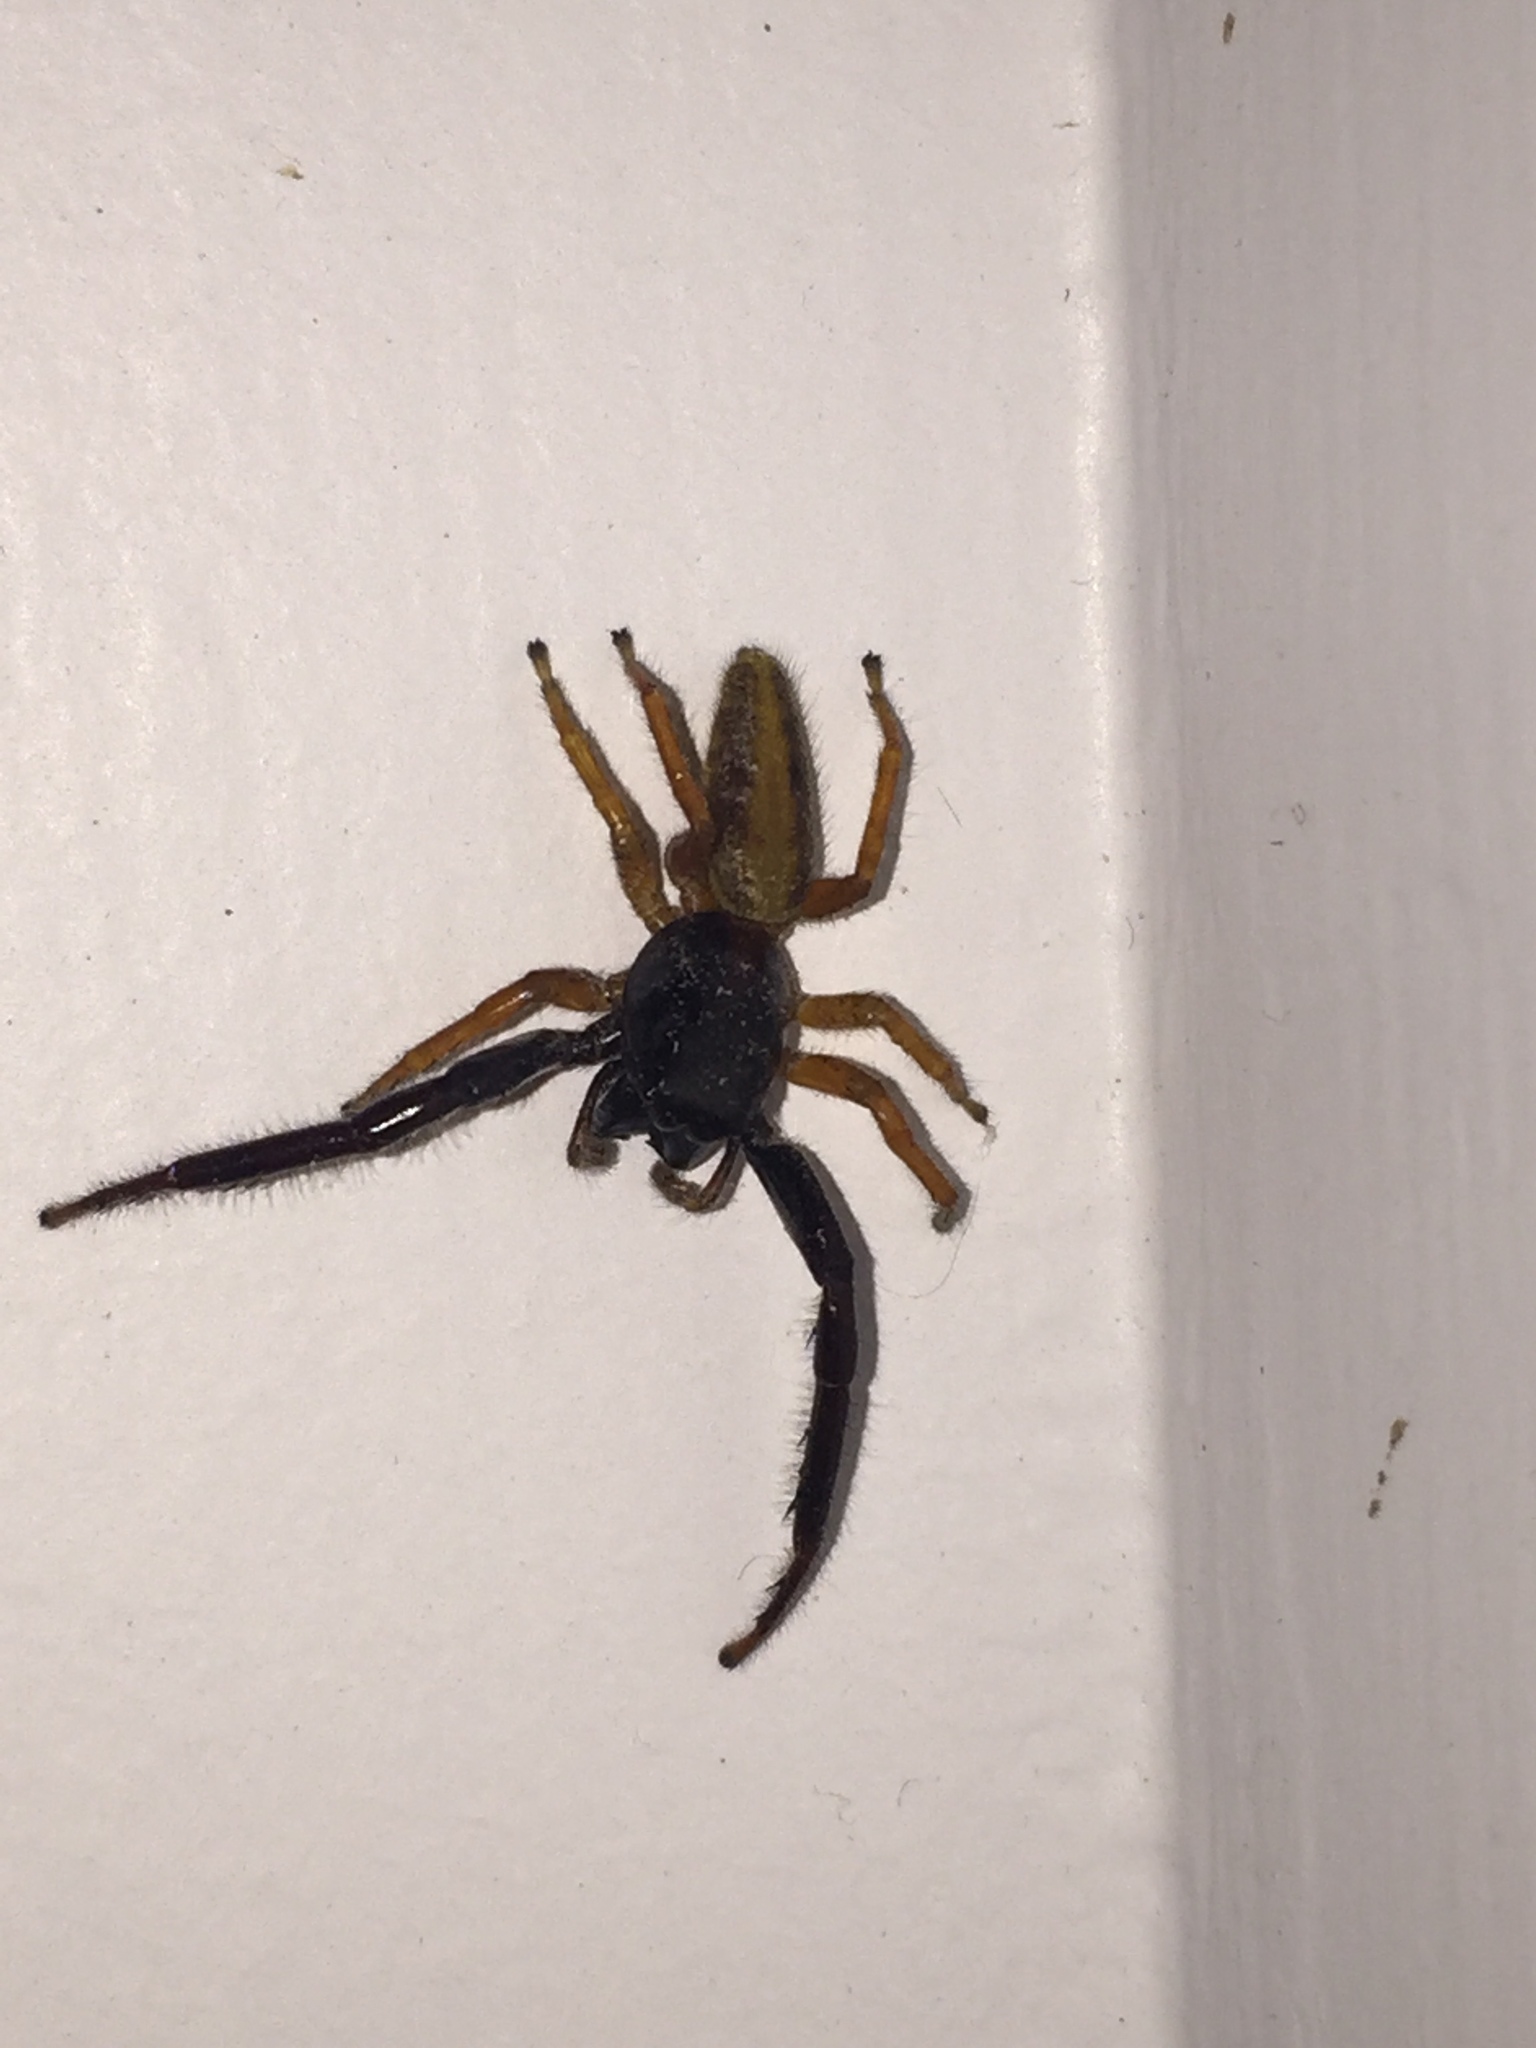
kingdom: Animalia
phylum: Arthropoda
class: Arachnida
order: Araneae
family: Salticidae
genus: Trite
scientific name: Trite planiceps
